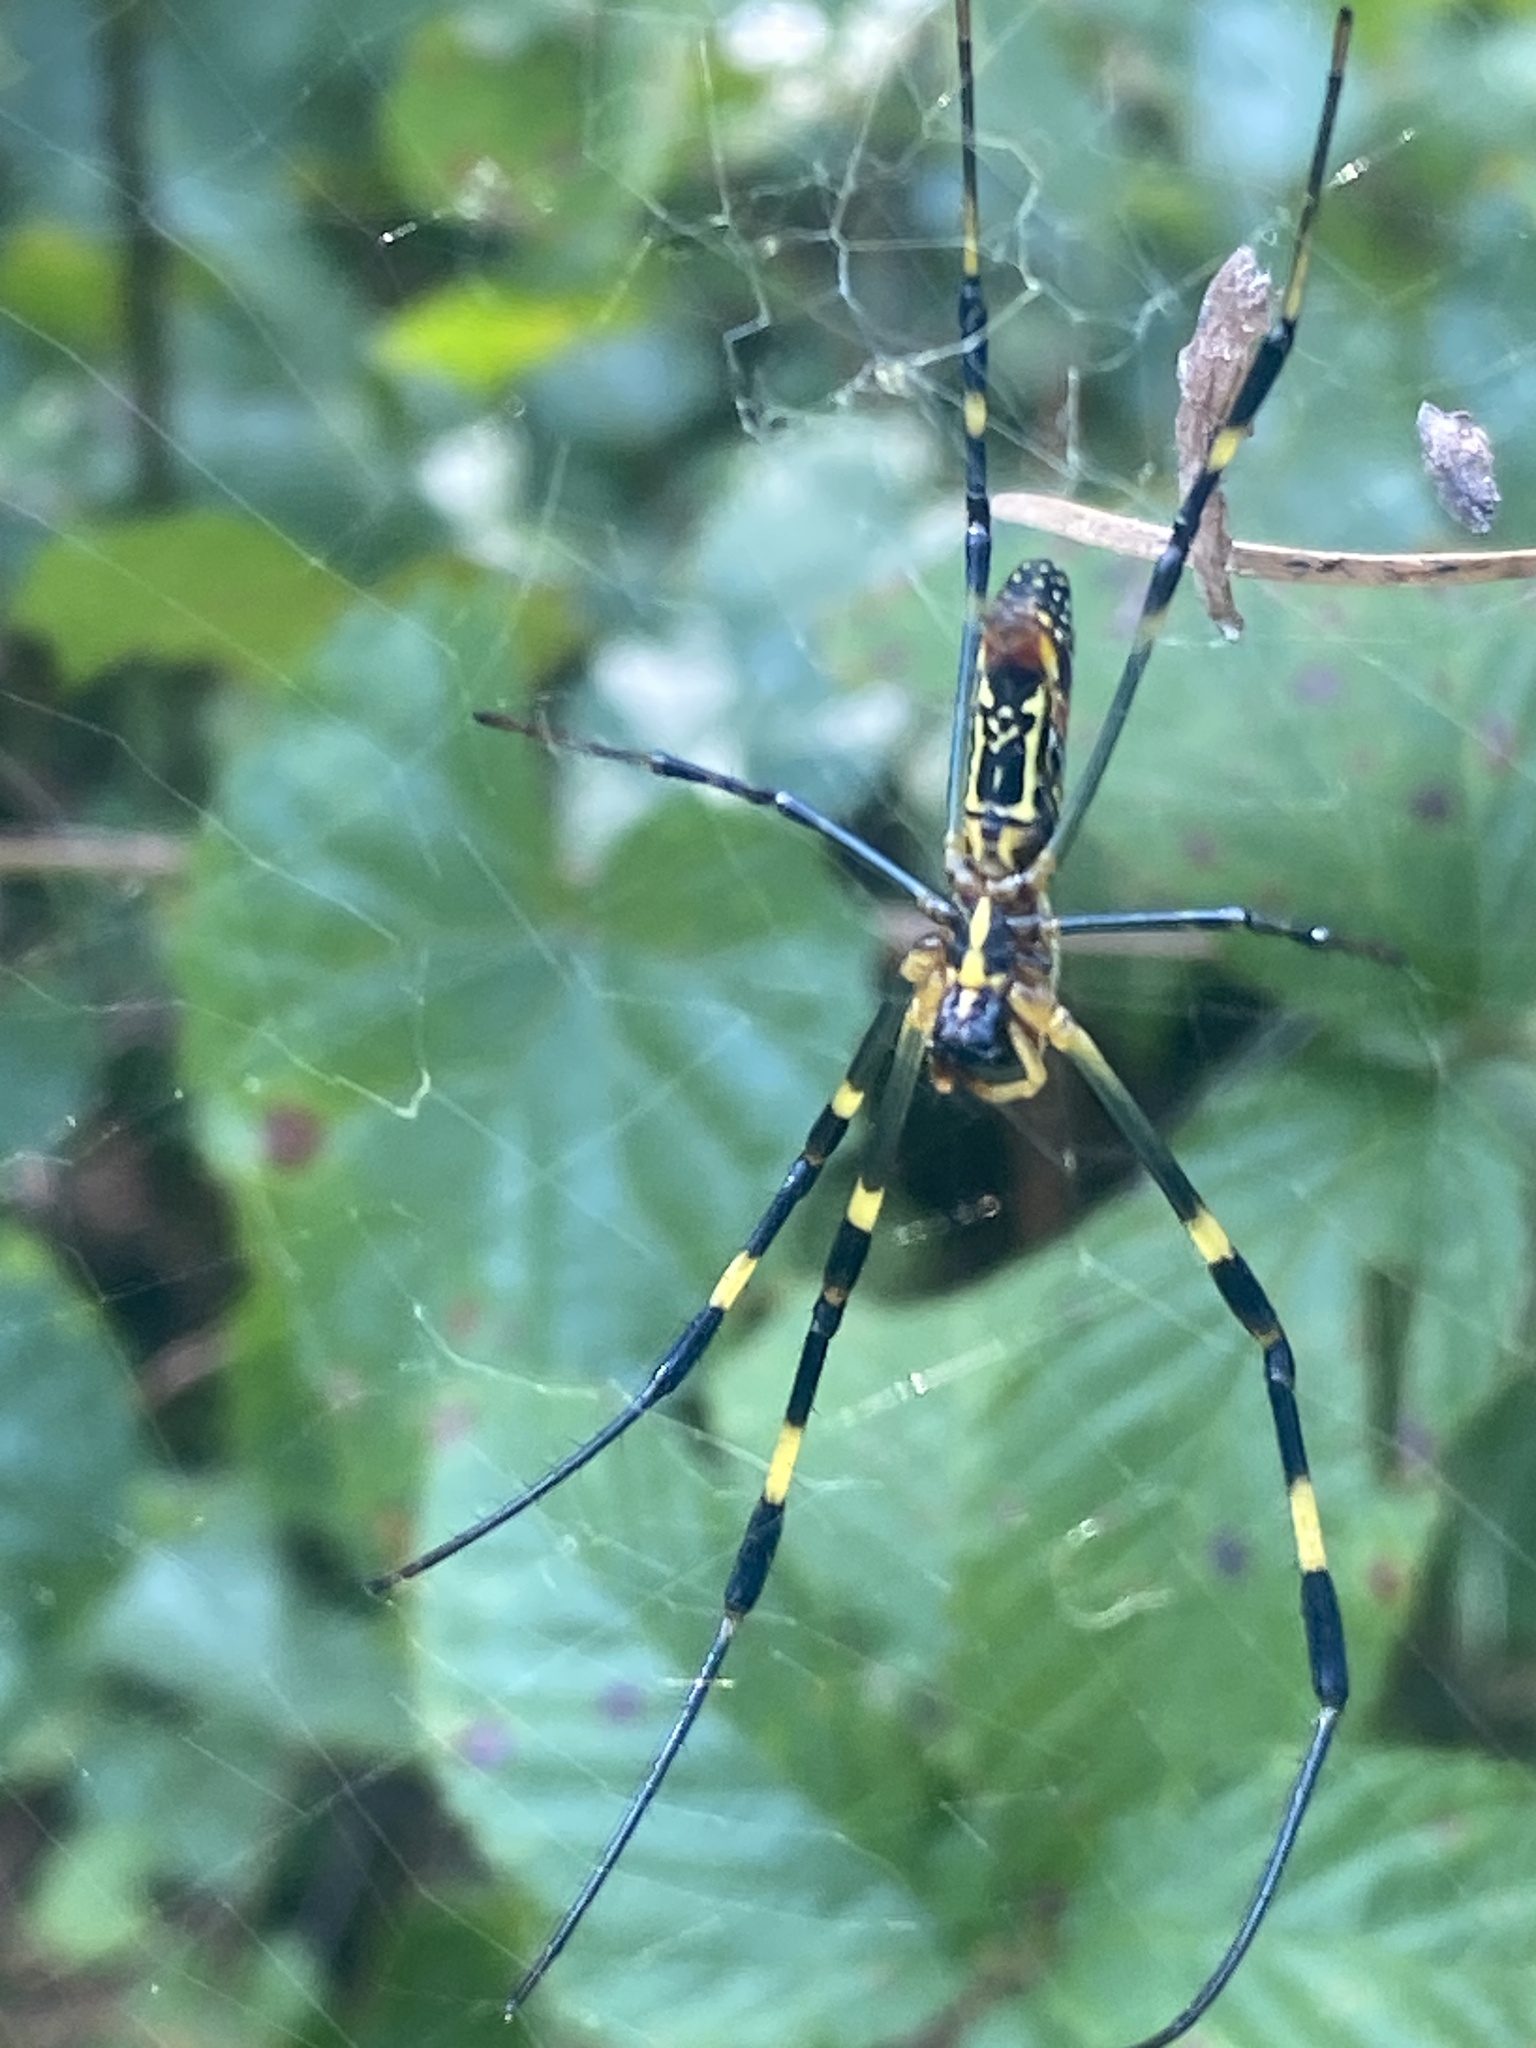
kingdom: Animalia
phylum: Arthropoda
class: Arachnida
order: Araneae
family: Araneidae
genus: Trichonephila
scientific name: Trichonephila clavata
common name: Jorō spider
